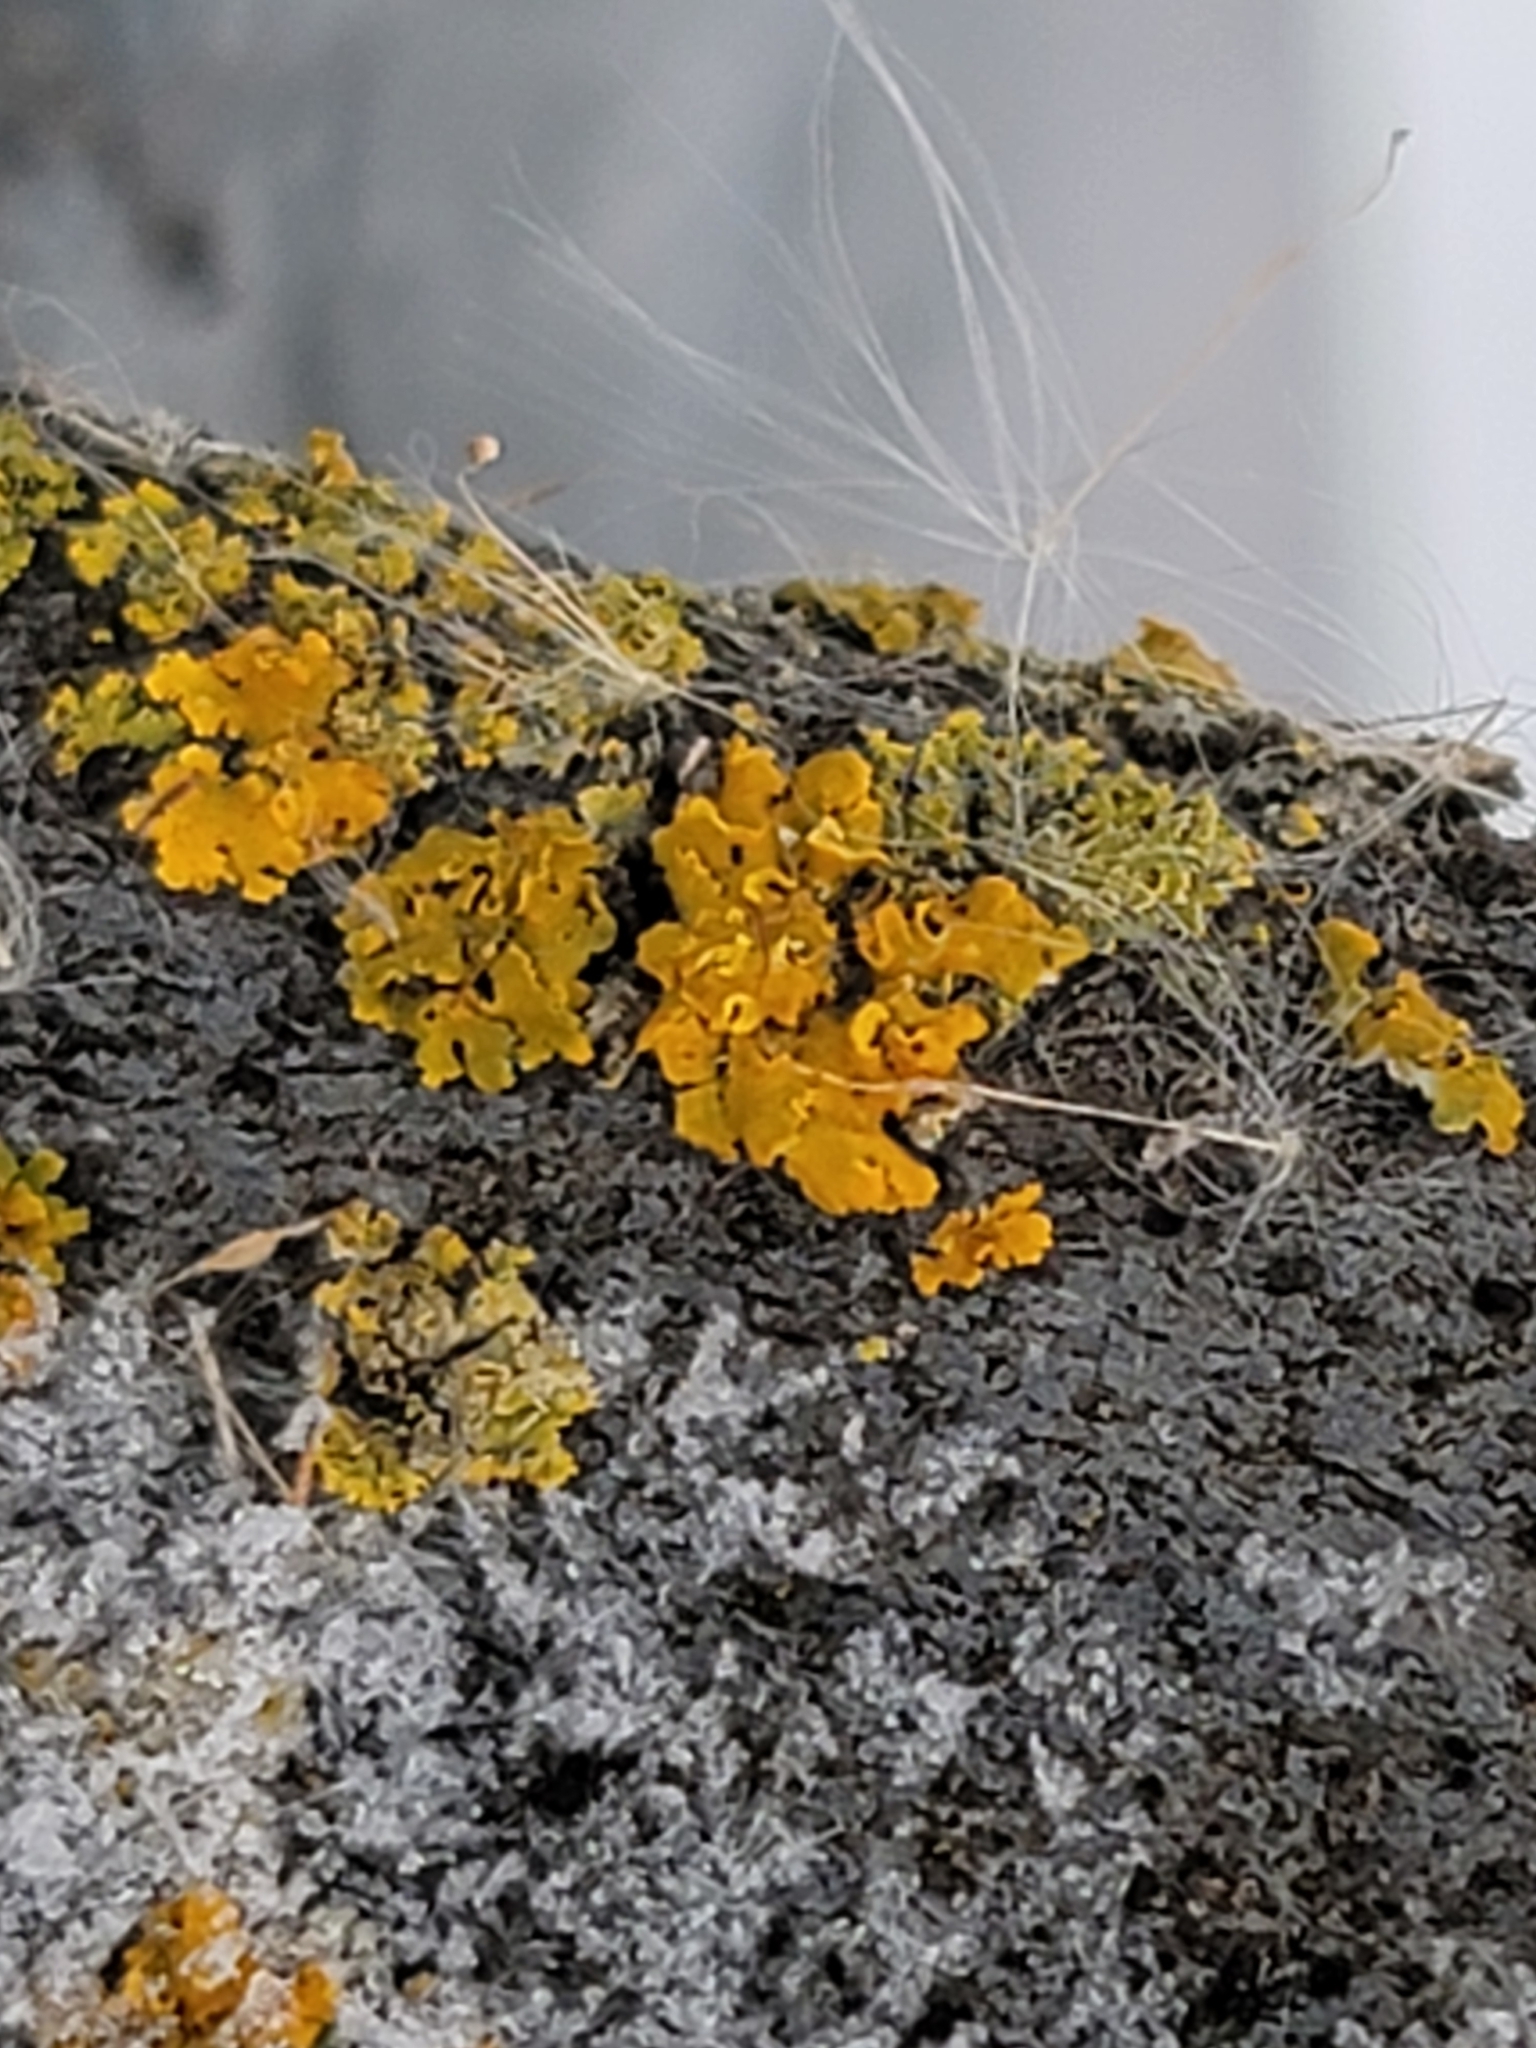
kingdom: Fungi
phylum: Ascomycota
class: Lecanoromycetes
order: Teloschistales
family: Teloschistaceae
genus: Oxneria
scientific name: Oxneria fallax
